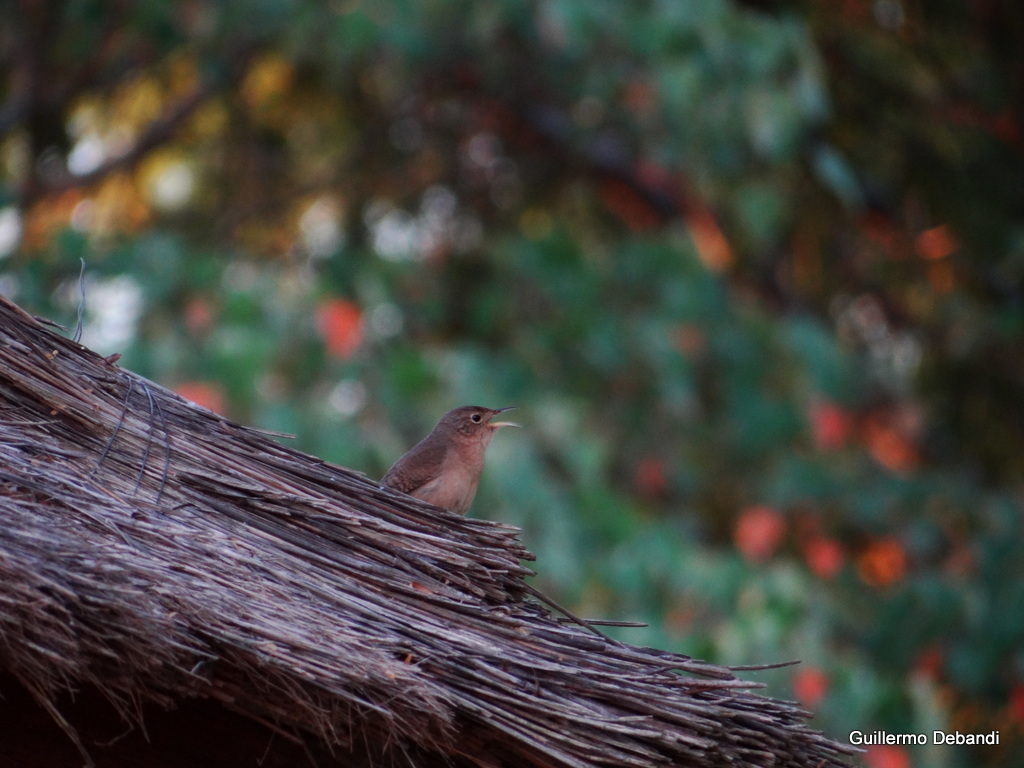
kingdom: Animalia
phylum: Chordata
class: Aves
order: Passeriformes
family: Troglodytidae
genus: Troglodytes
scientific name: Troglodytes aedon
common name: House wren
